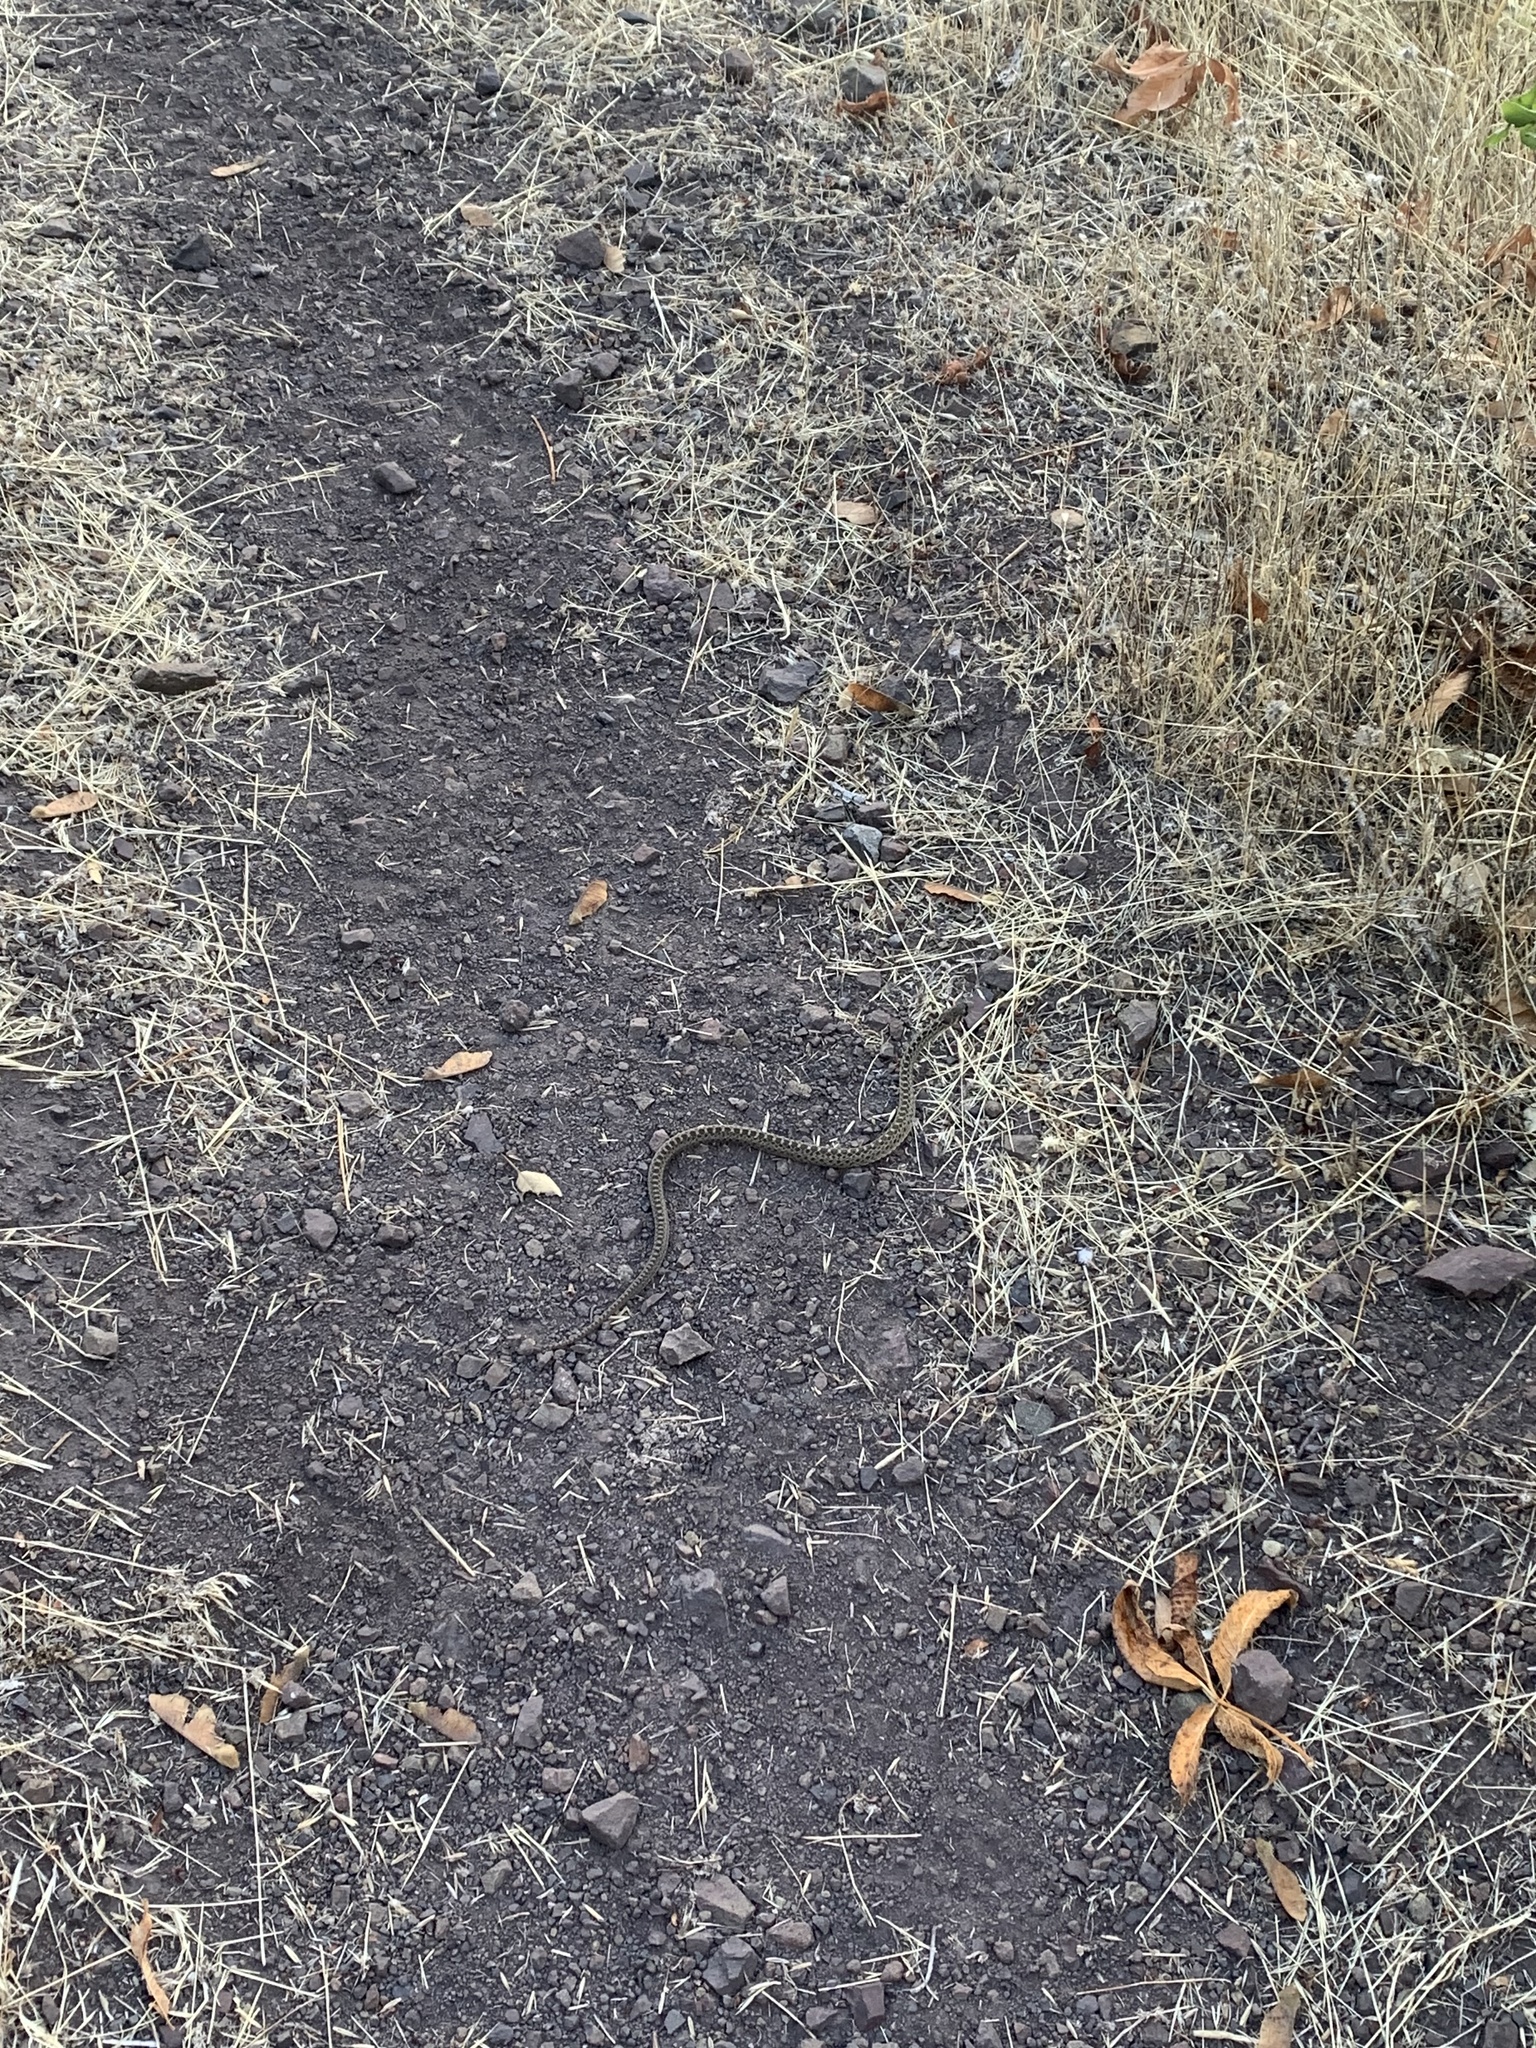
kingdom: Animalia
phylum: Chordata
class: Squamata
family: Colubridae
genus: Pituophis
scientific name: Pituophis catenifer
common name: Gopher snake
